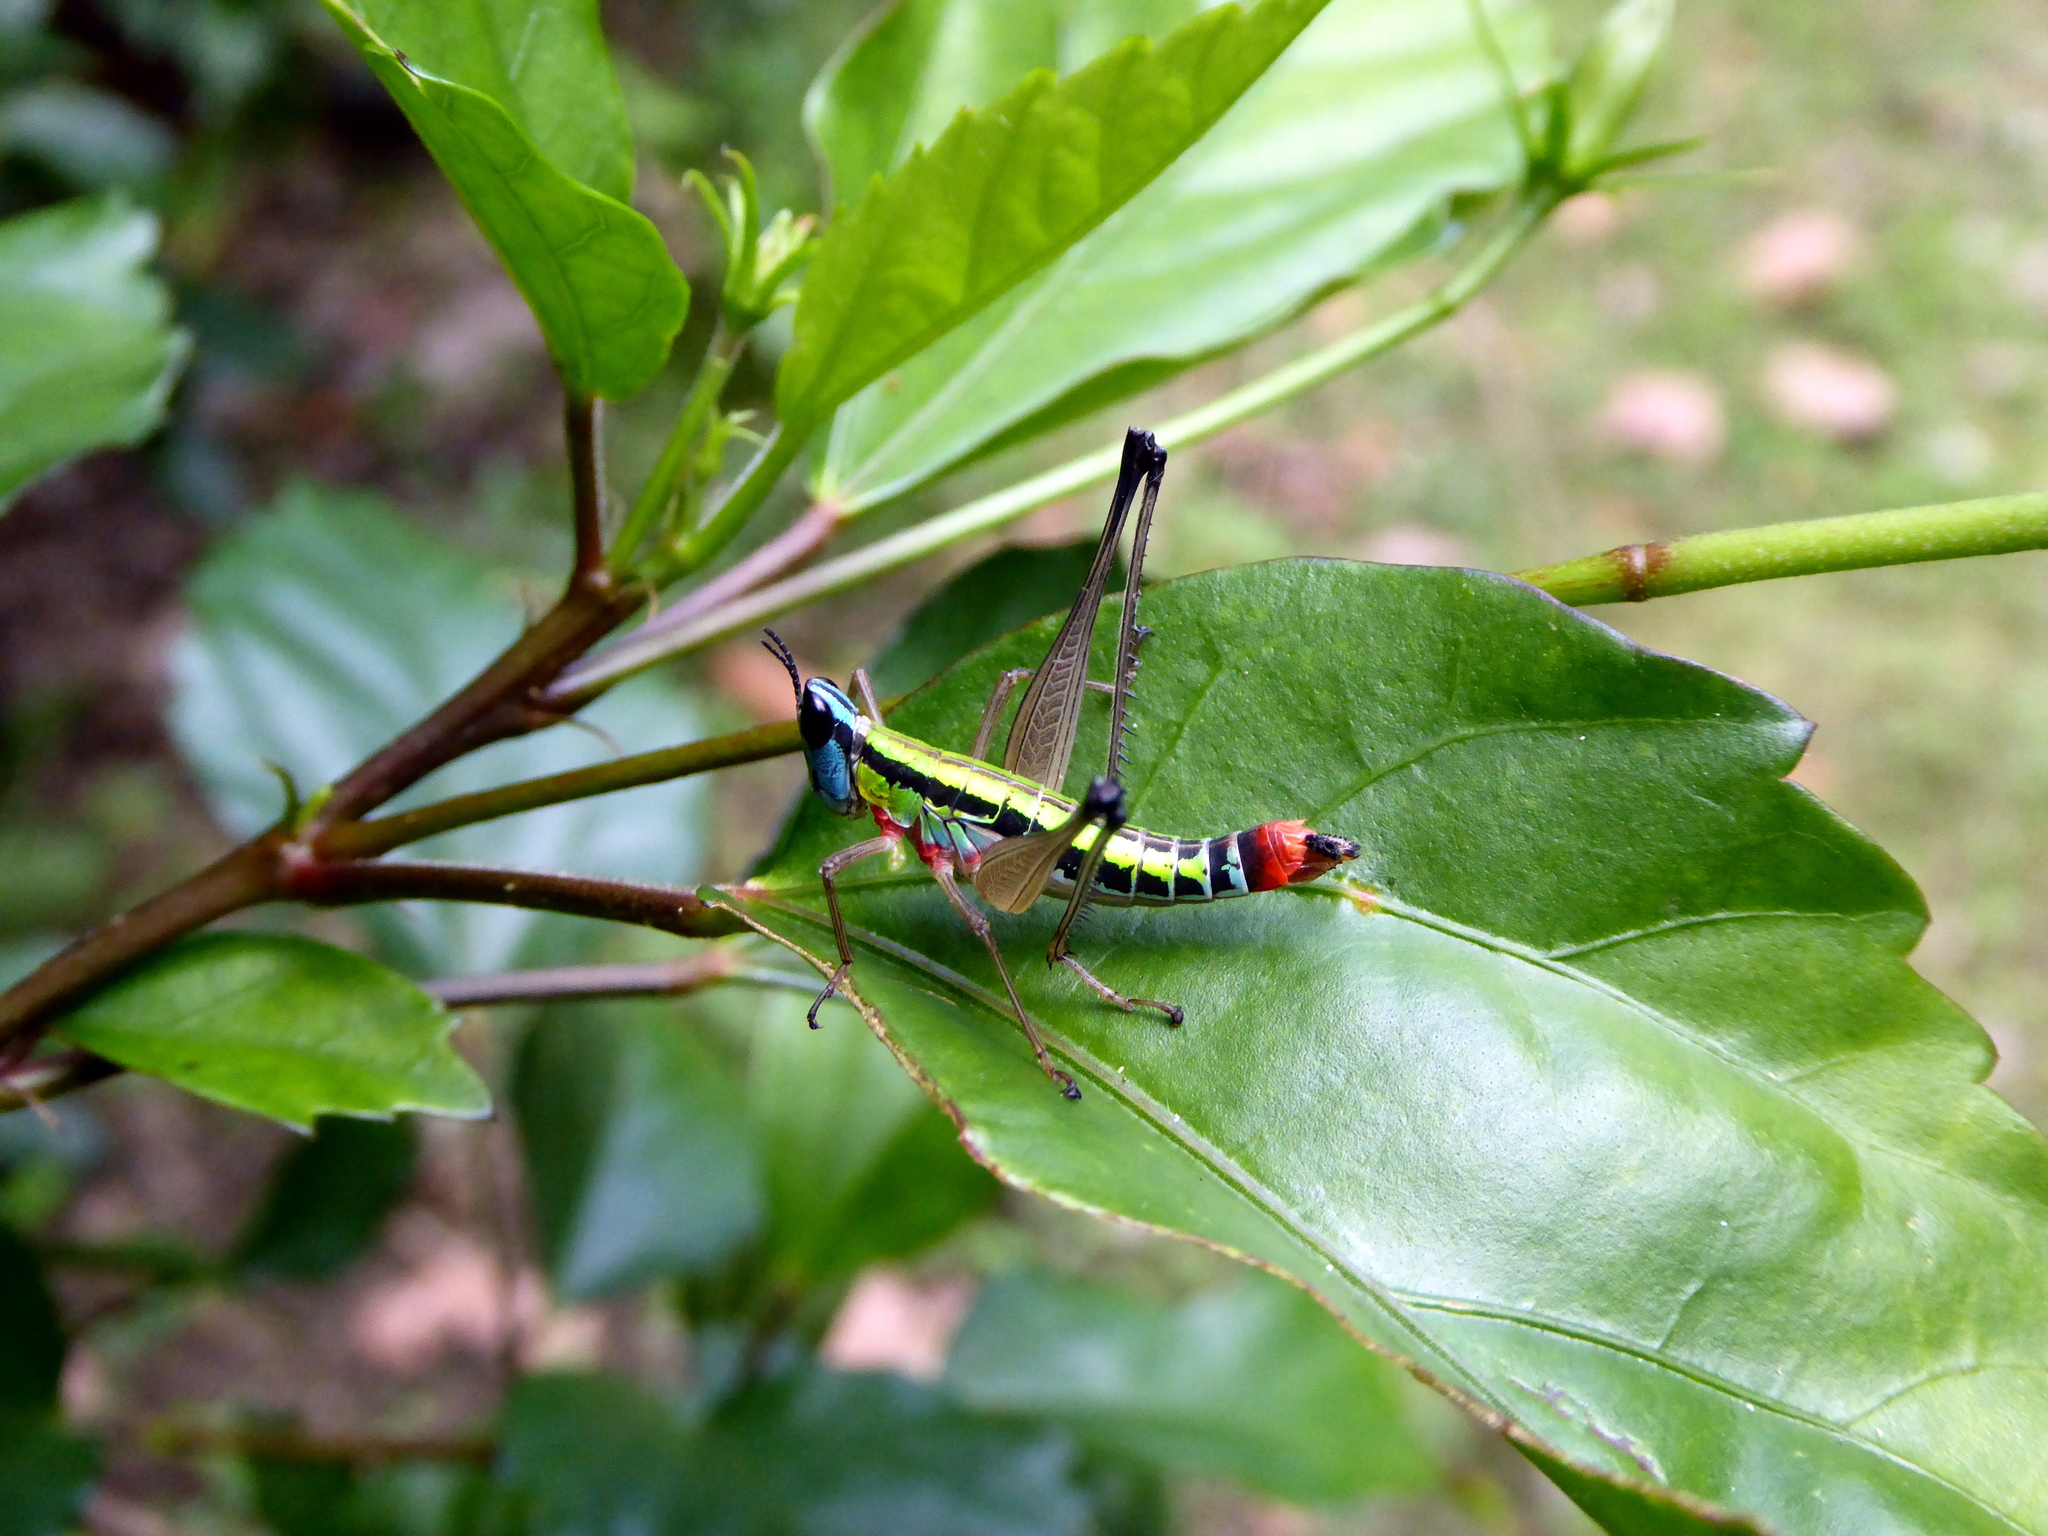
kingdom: Animalia
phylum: Arthropoda
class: Insecta
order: Orthoptera
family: Episactidae
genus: Episactus
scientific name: Episactus tristani
